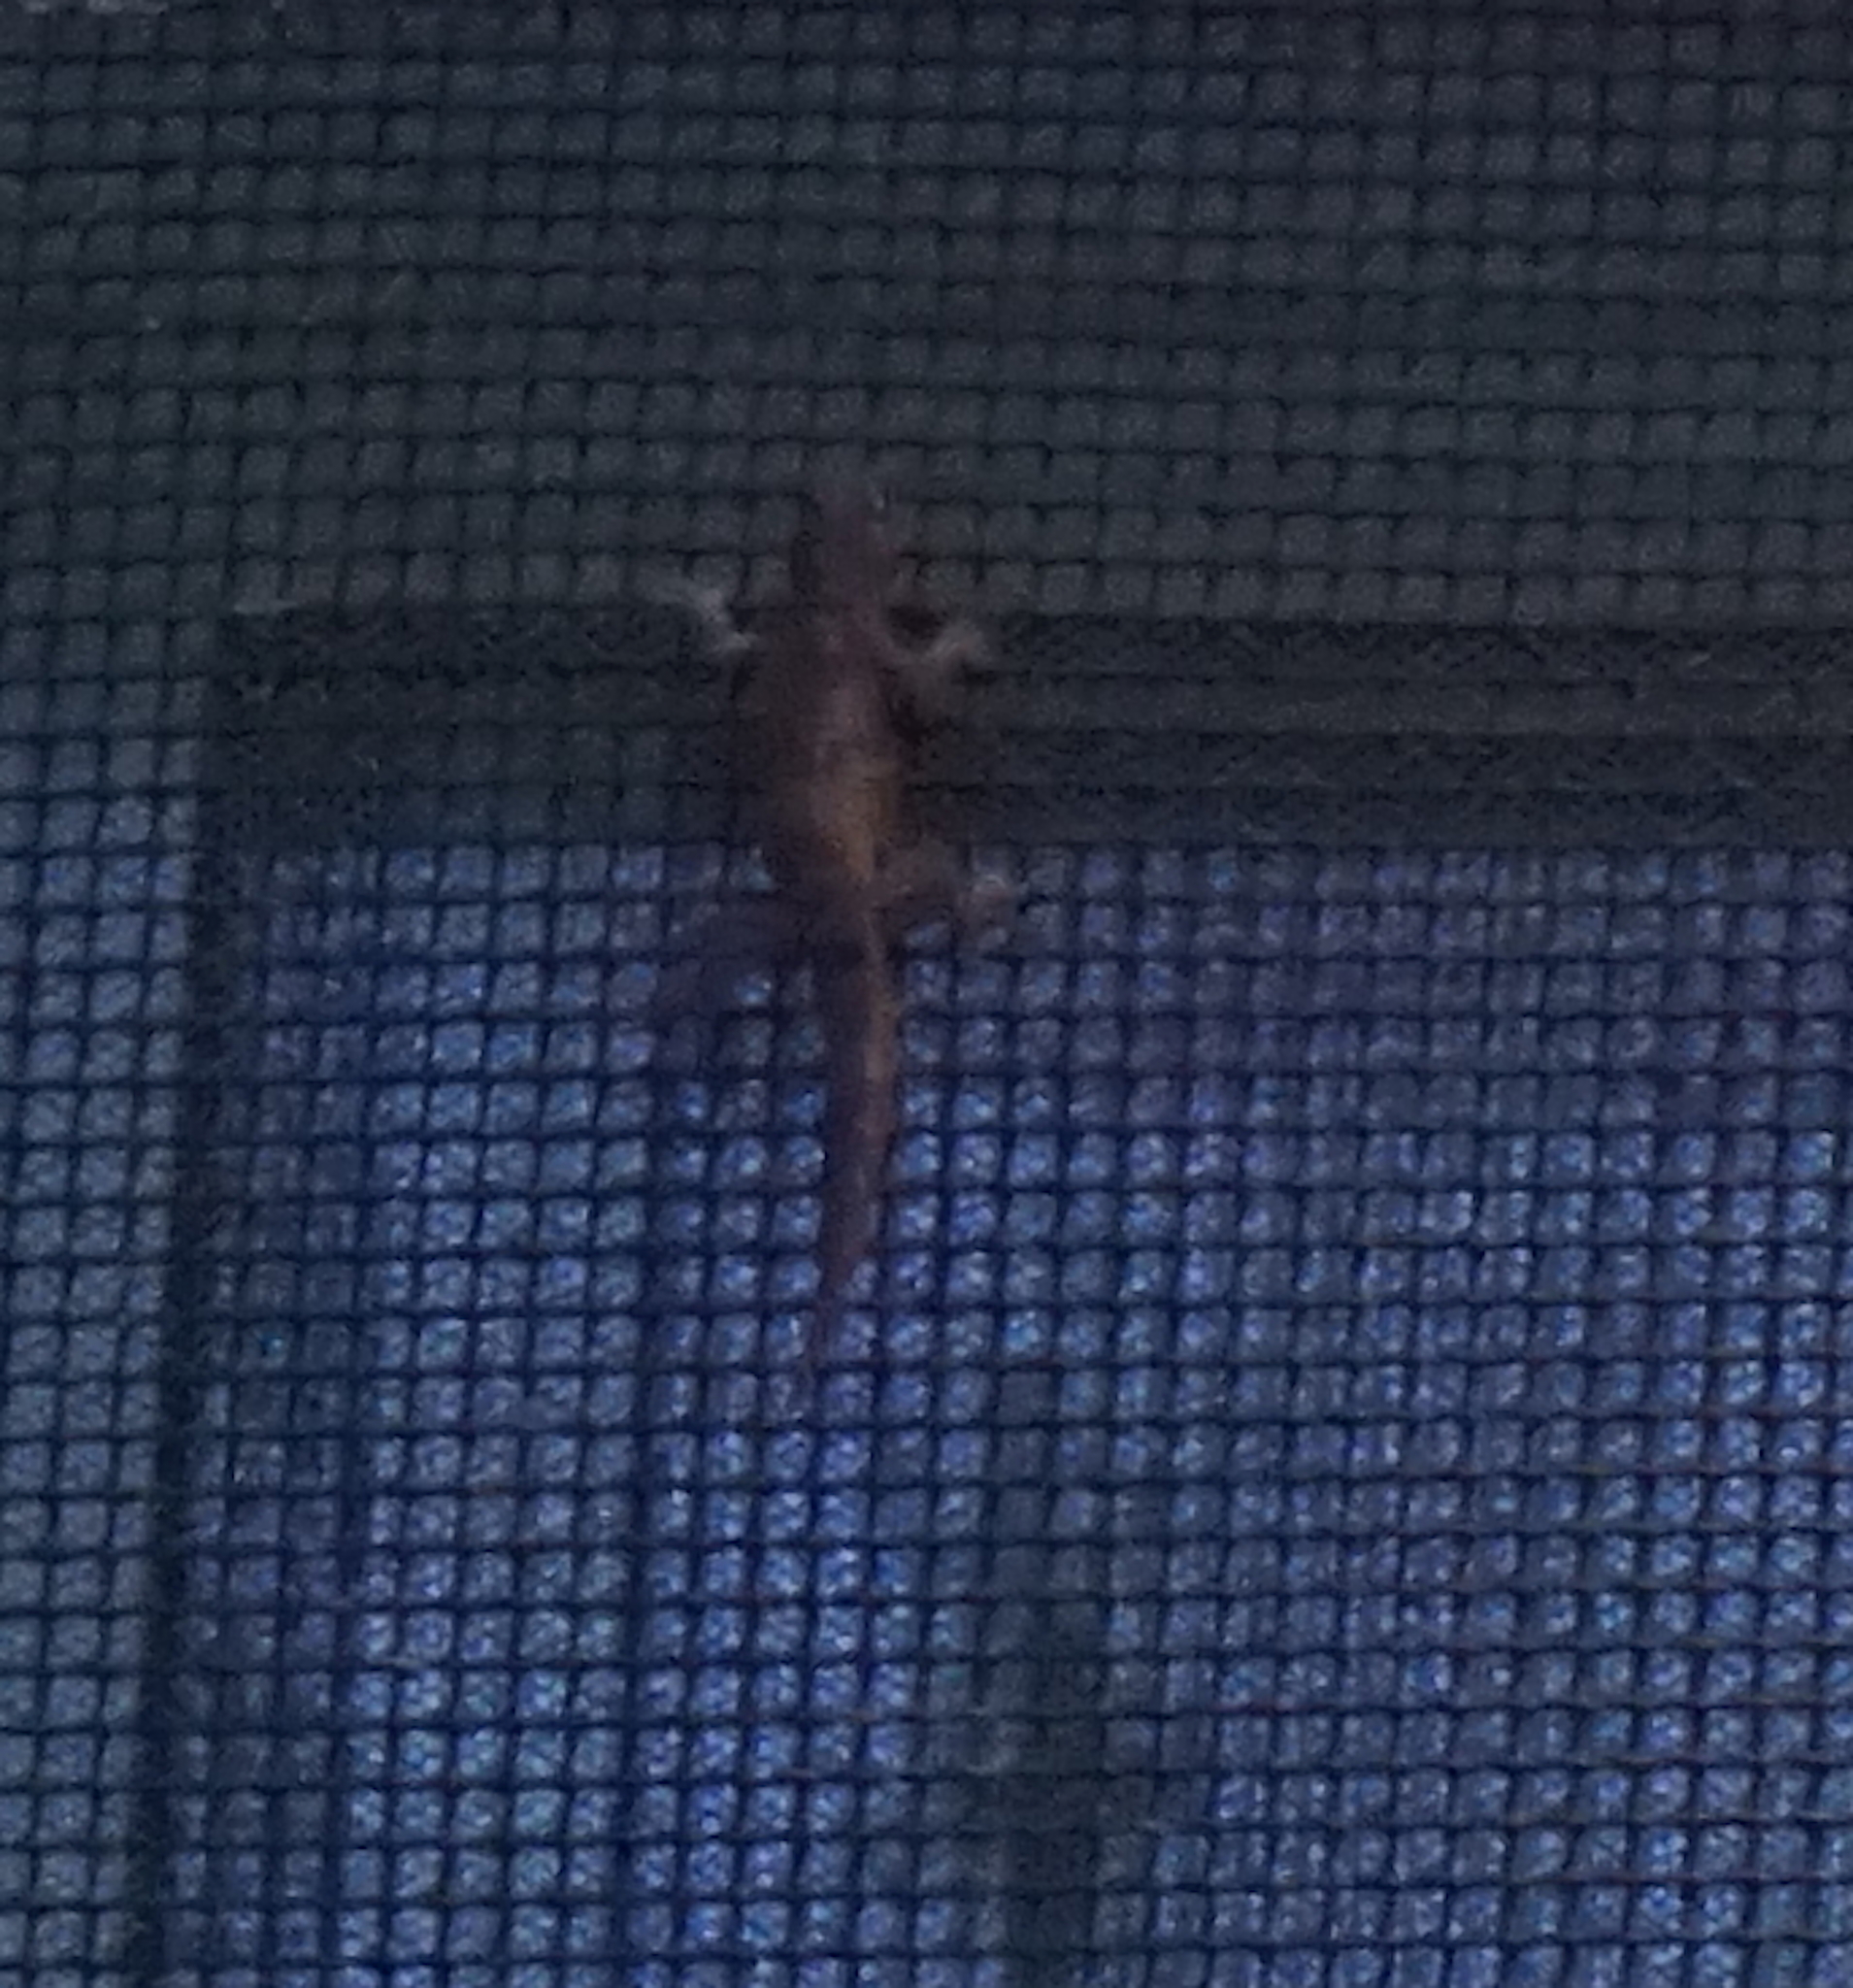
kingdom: Animalia
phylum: Chordata
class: Squamata
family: Gekkonidae
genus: Hemidactylus
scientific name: Hemidactylus platyurus
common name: Flat-tailed house gecko
